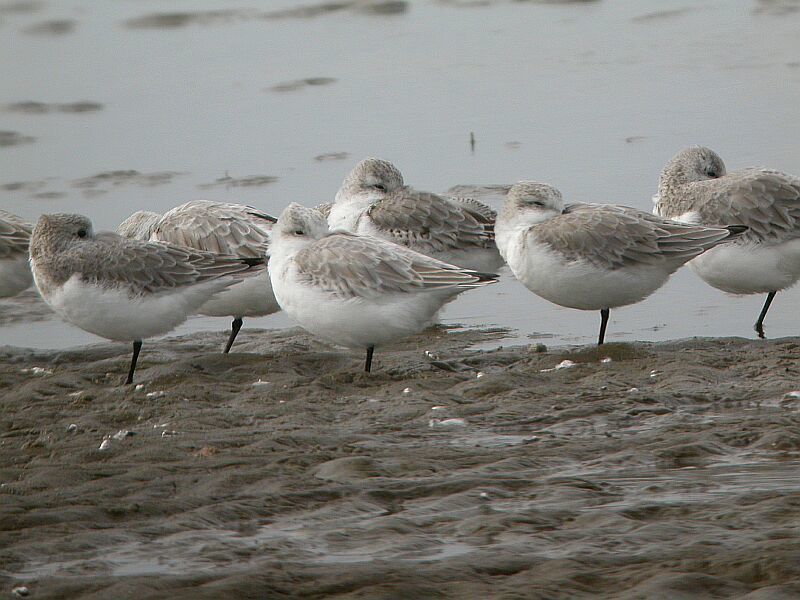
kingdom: Animalia
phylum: Chordata
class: Aves
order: Charadriiformes
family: Scolopacidae
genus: Calidris
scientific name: Calidris alba
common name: Sanderling
